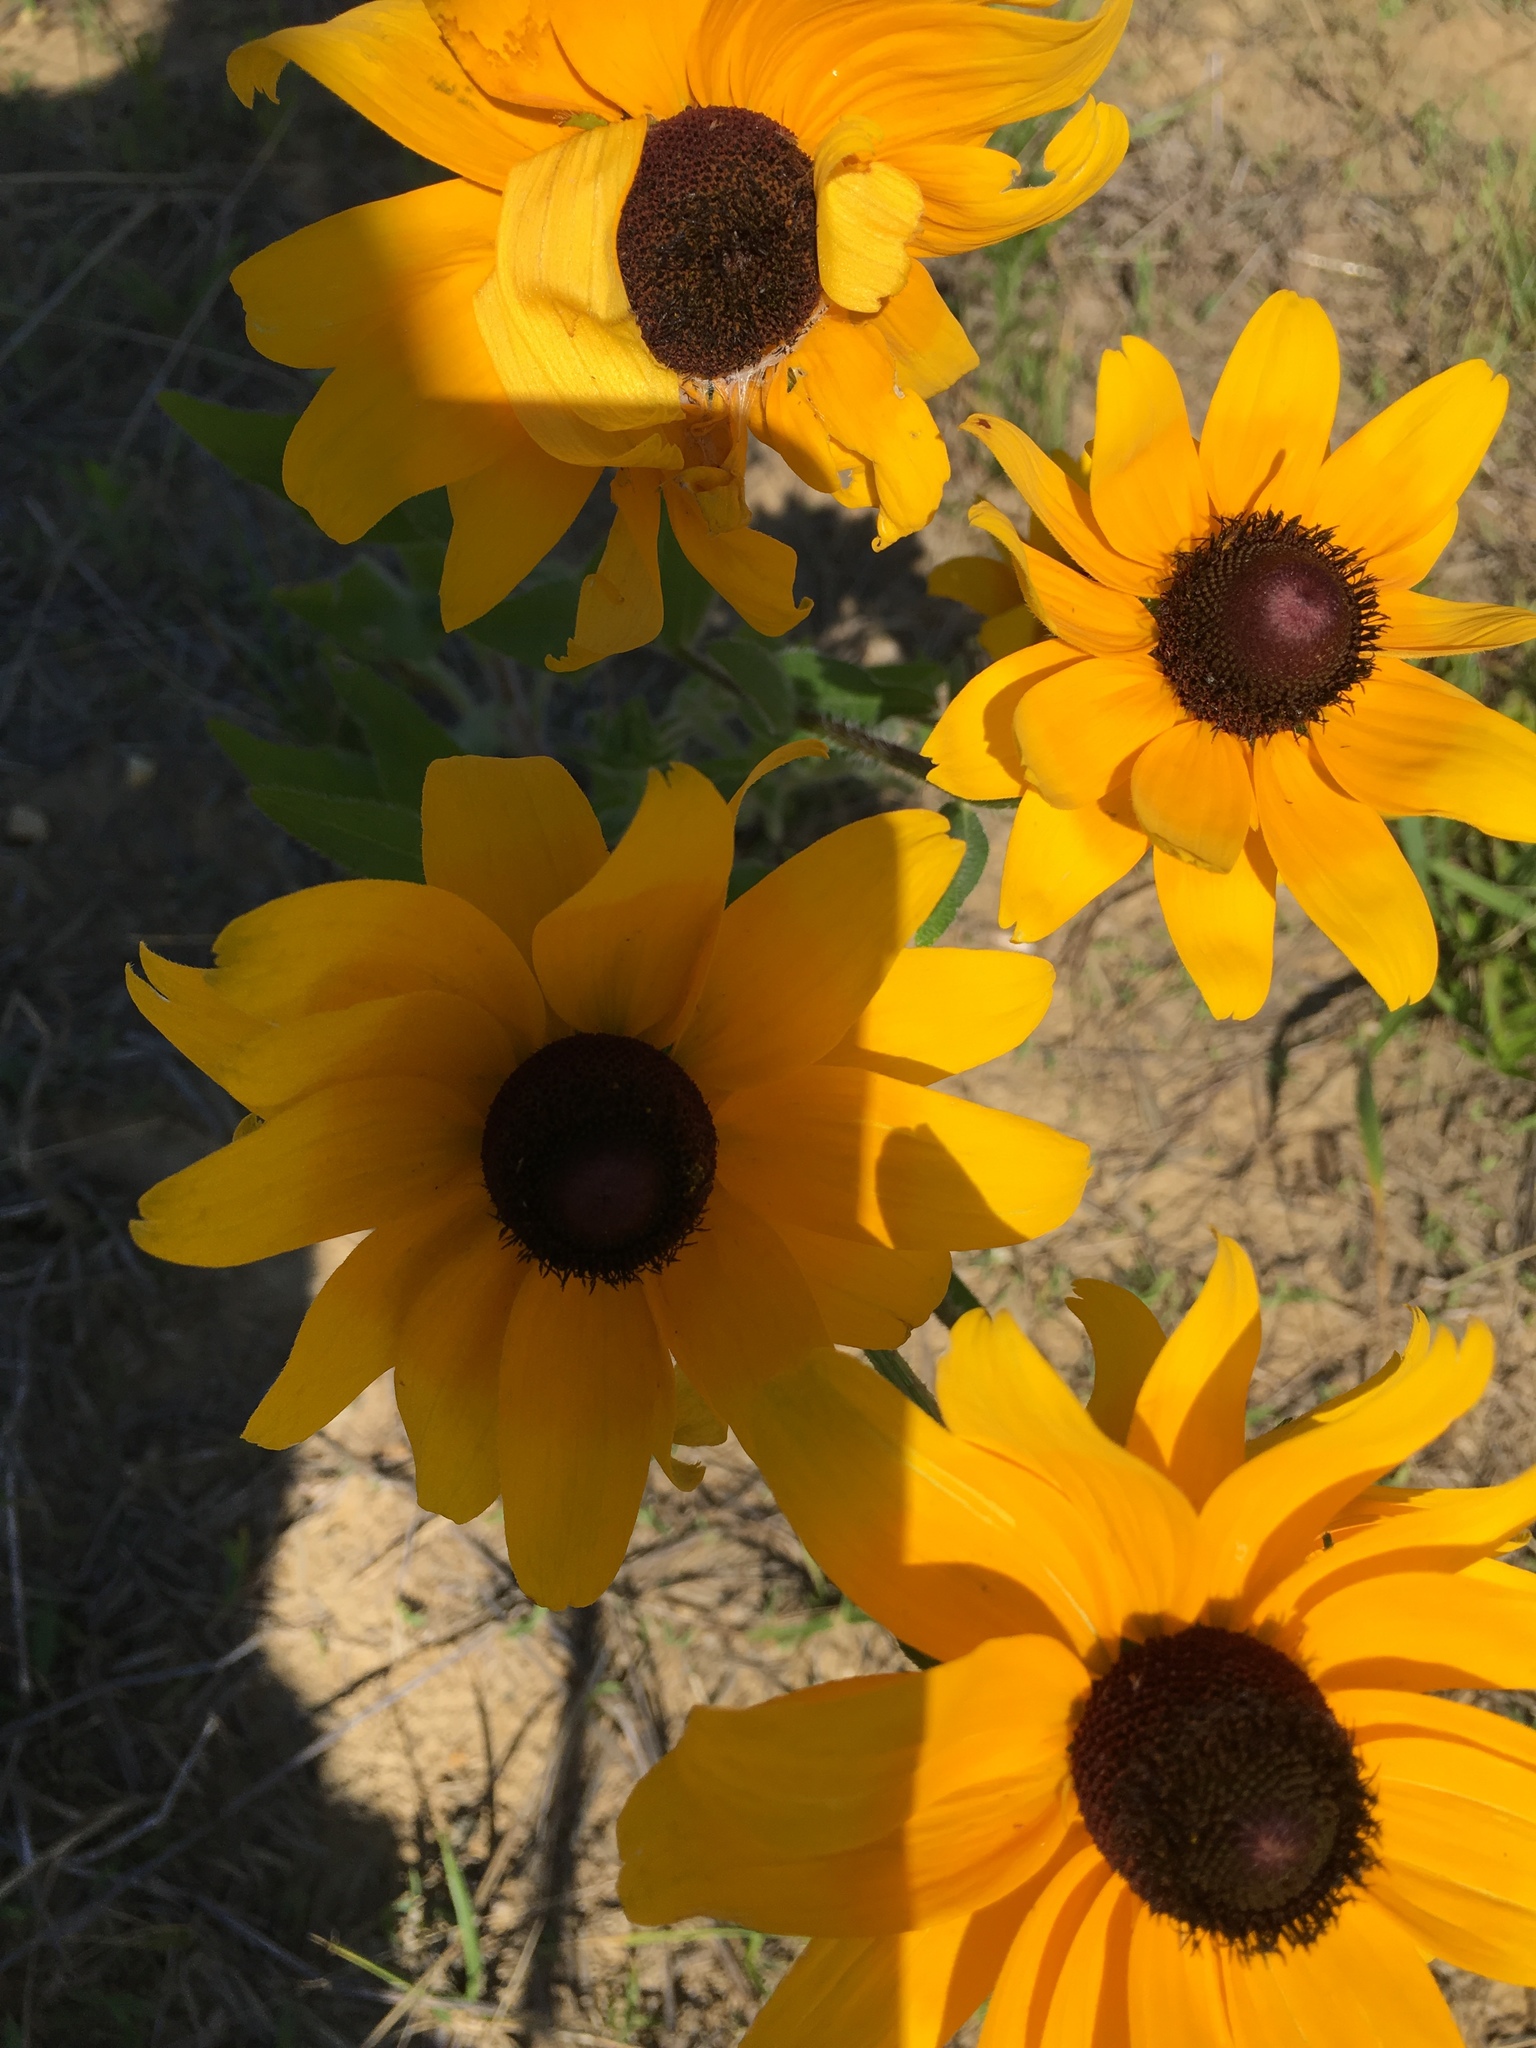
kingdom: Plantae
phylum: Tracheophyta
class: Magnoliopsida
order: Asterales
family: Asteraceae
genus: Rudbeckia
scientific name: Rudbeckia hirta
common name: Black-eyed-susan
